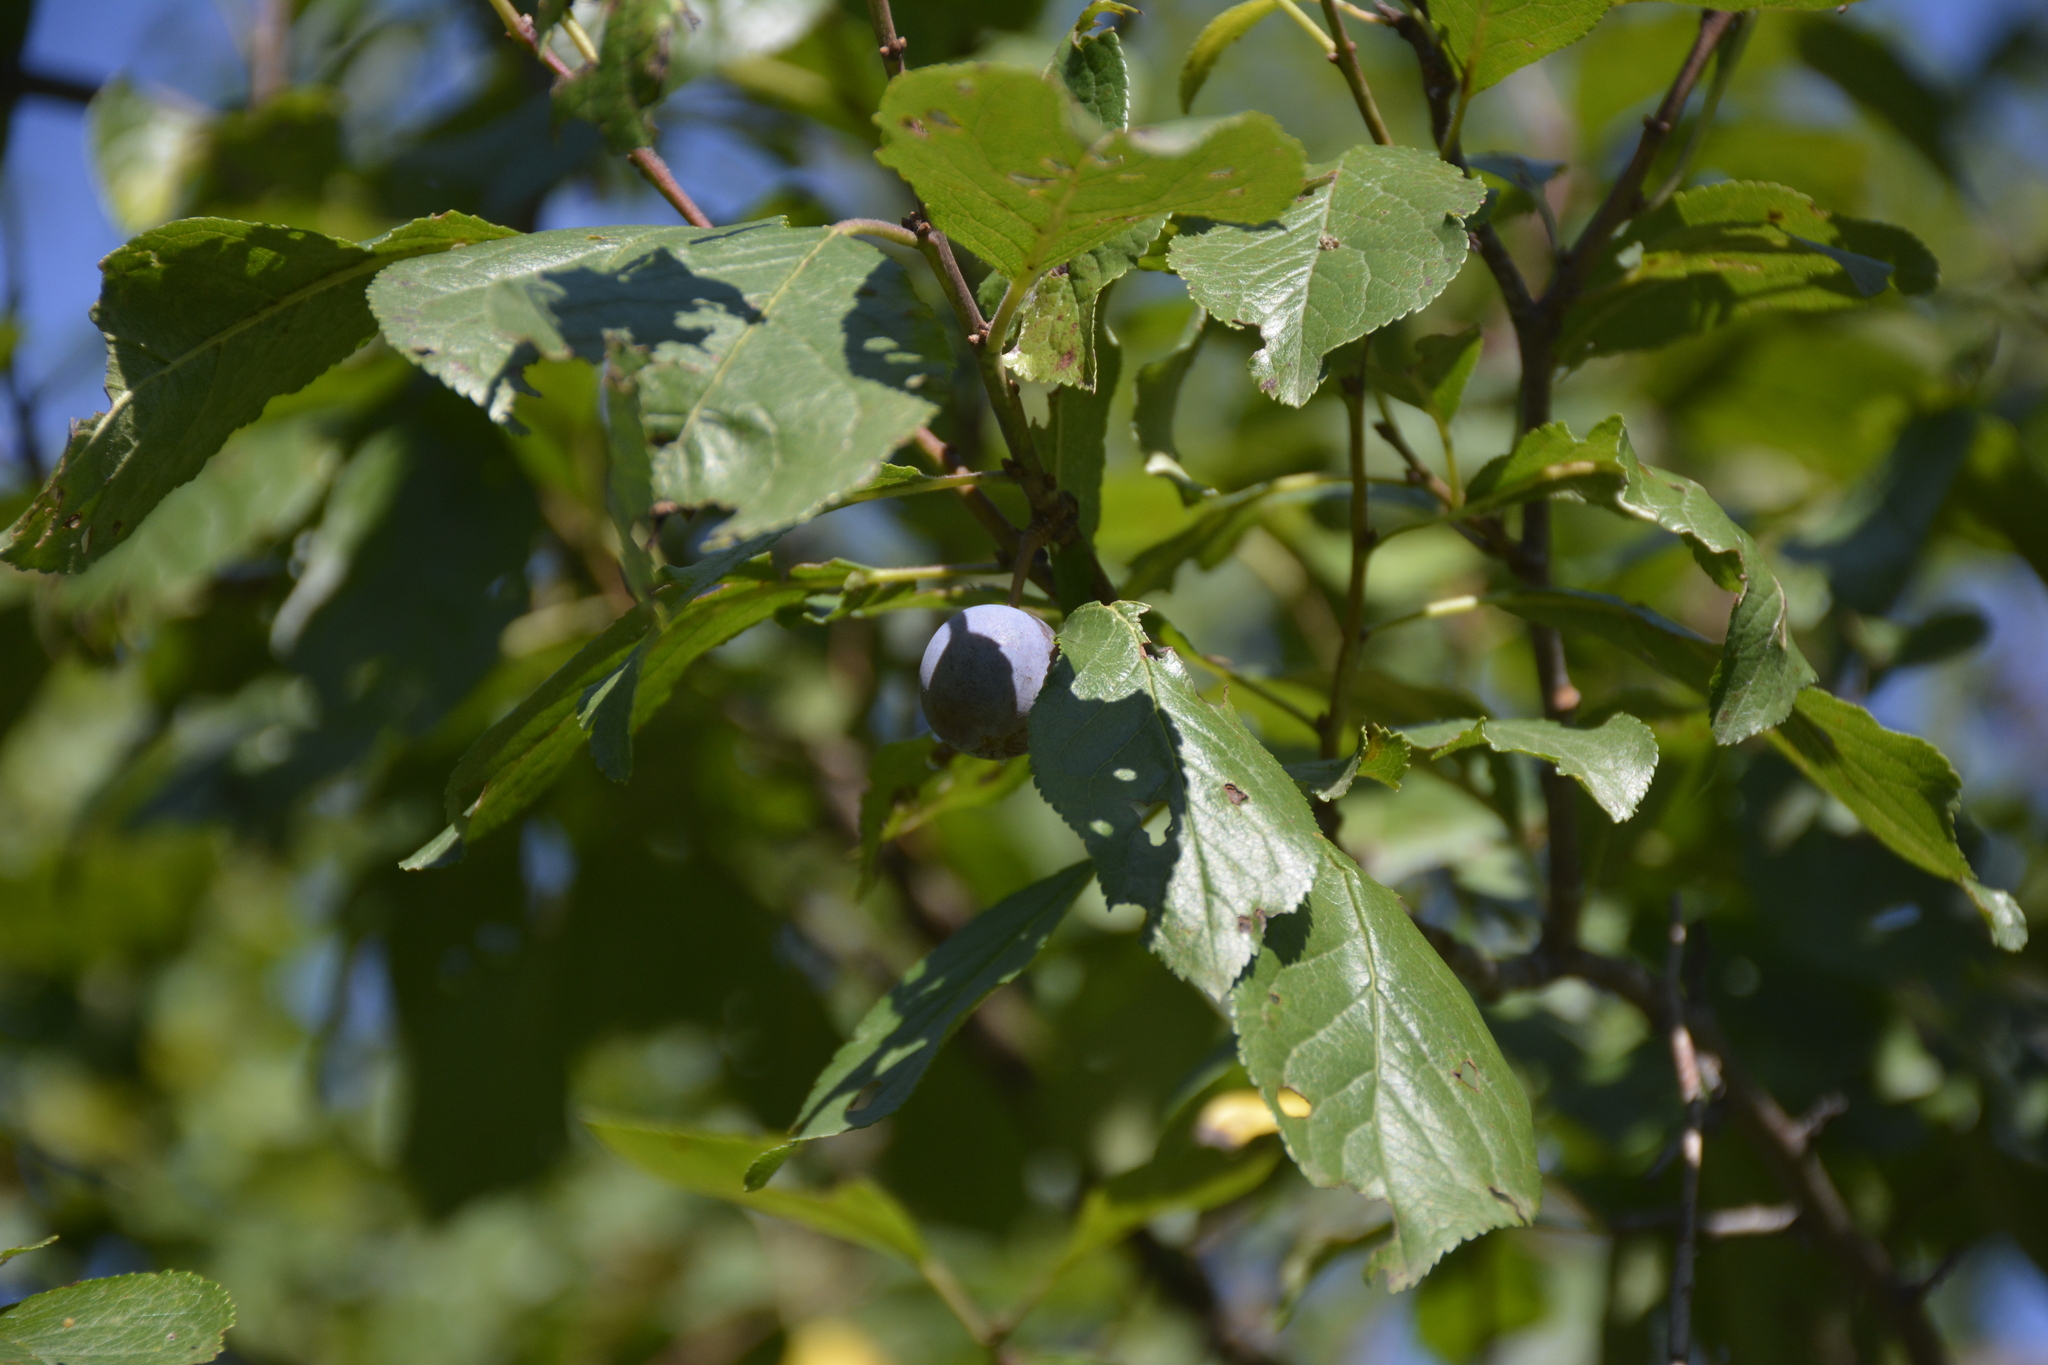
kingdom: Plantae
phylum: Tracheophyta
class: Magnoliopsida
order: Rosales
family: Rosaceae
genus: Prunus
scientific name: Prunus spinosa
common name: Blackthorn
